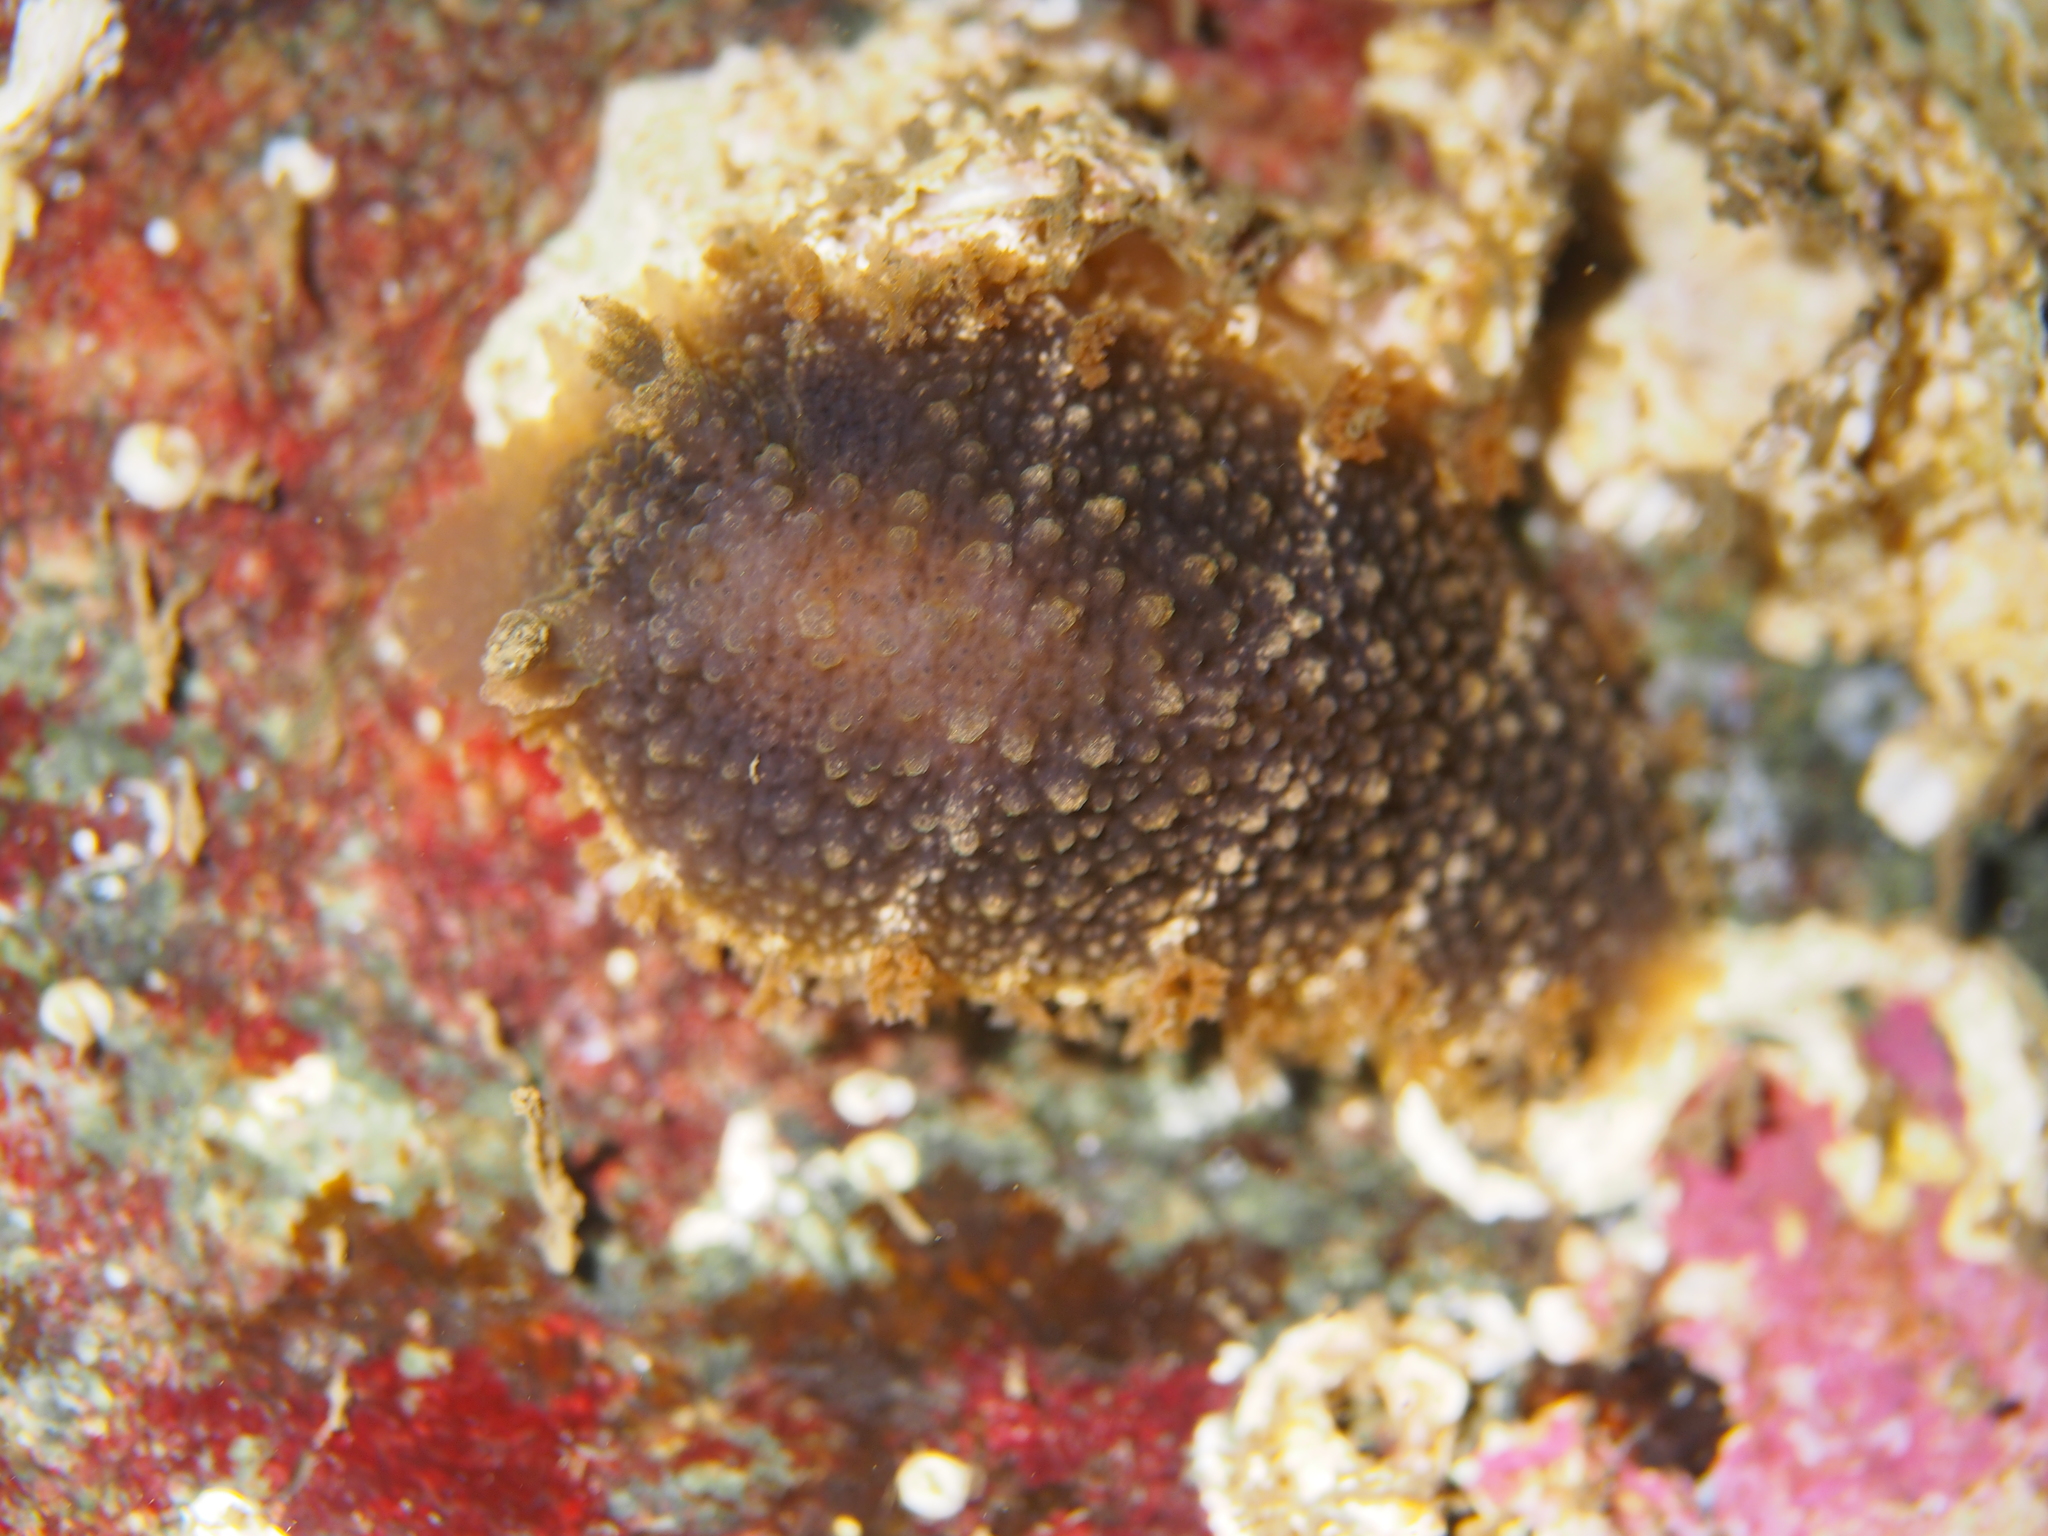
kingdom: Animalia
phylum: Mollusca
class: Gastropoda
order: Nudibranchia
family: Tritoniidae
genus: Tritonia
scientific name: Tritonia hombergii
